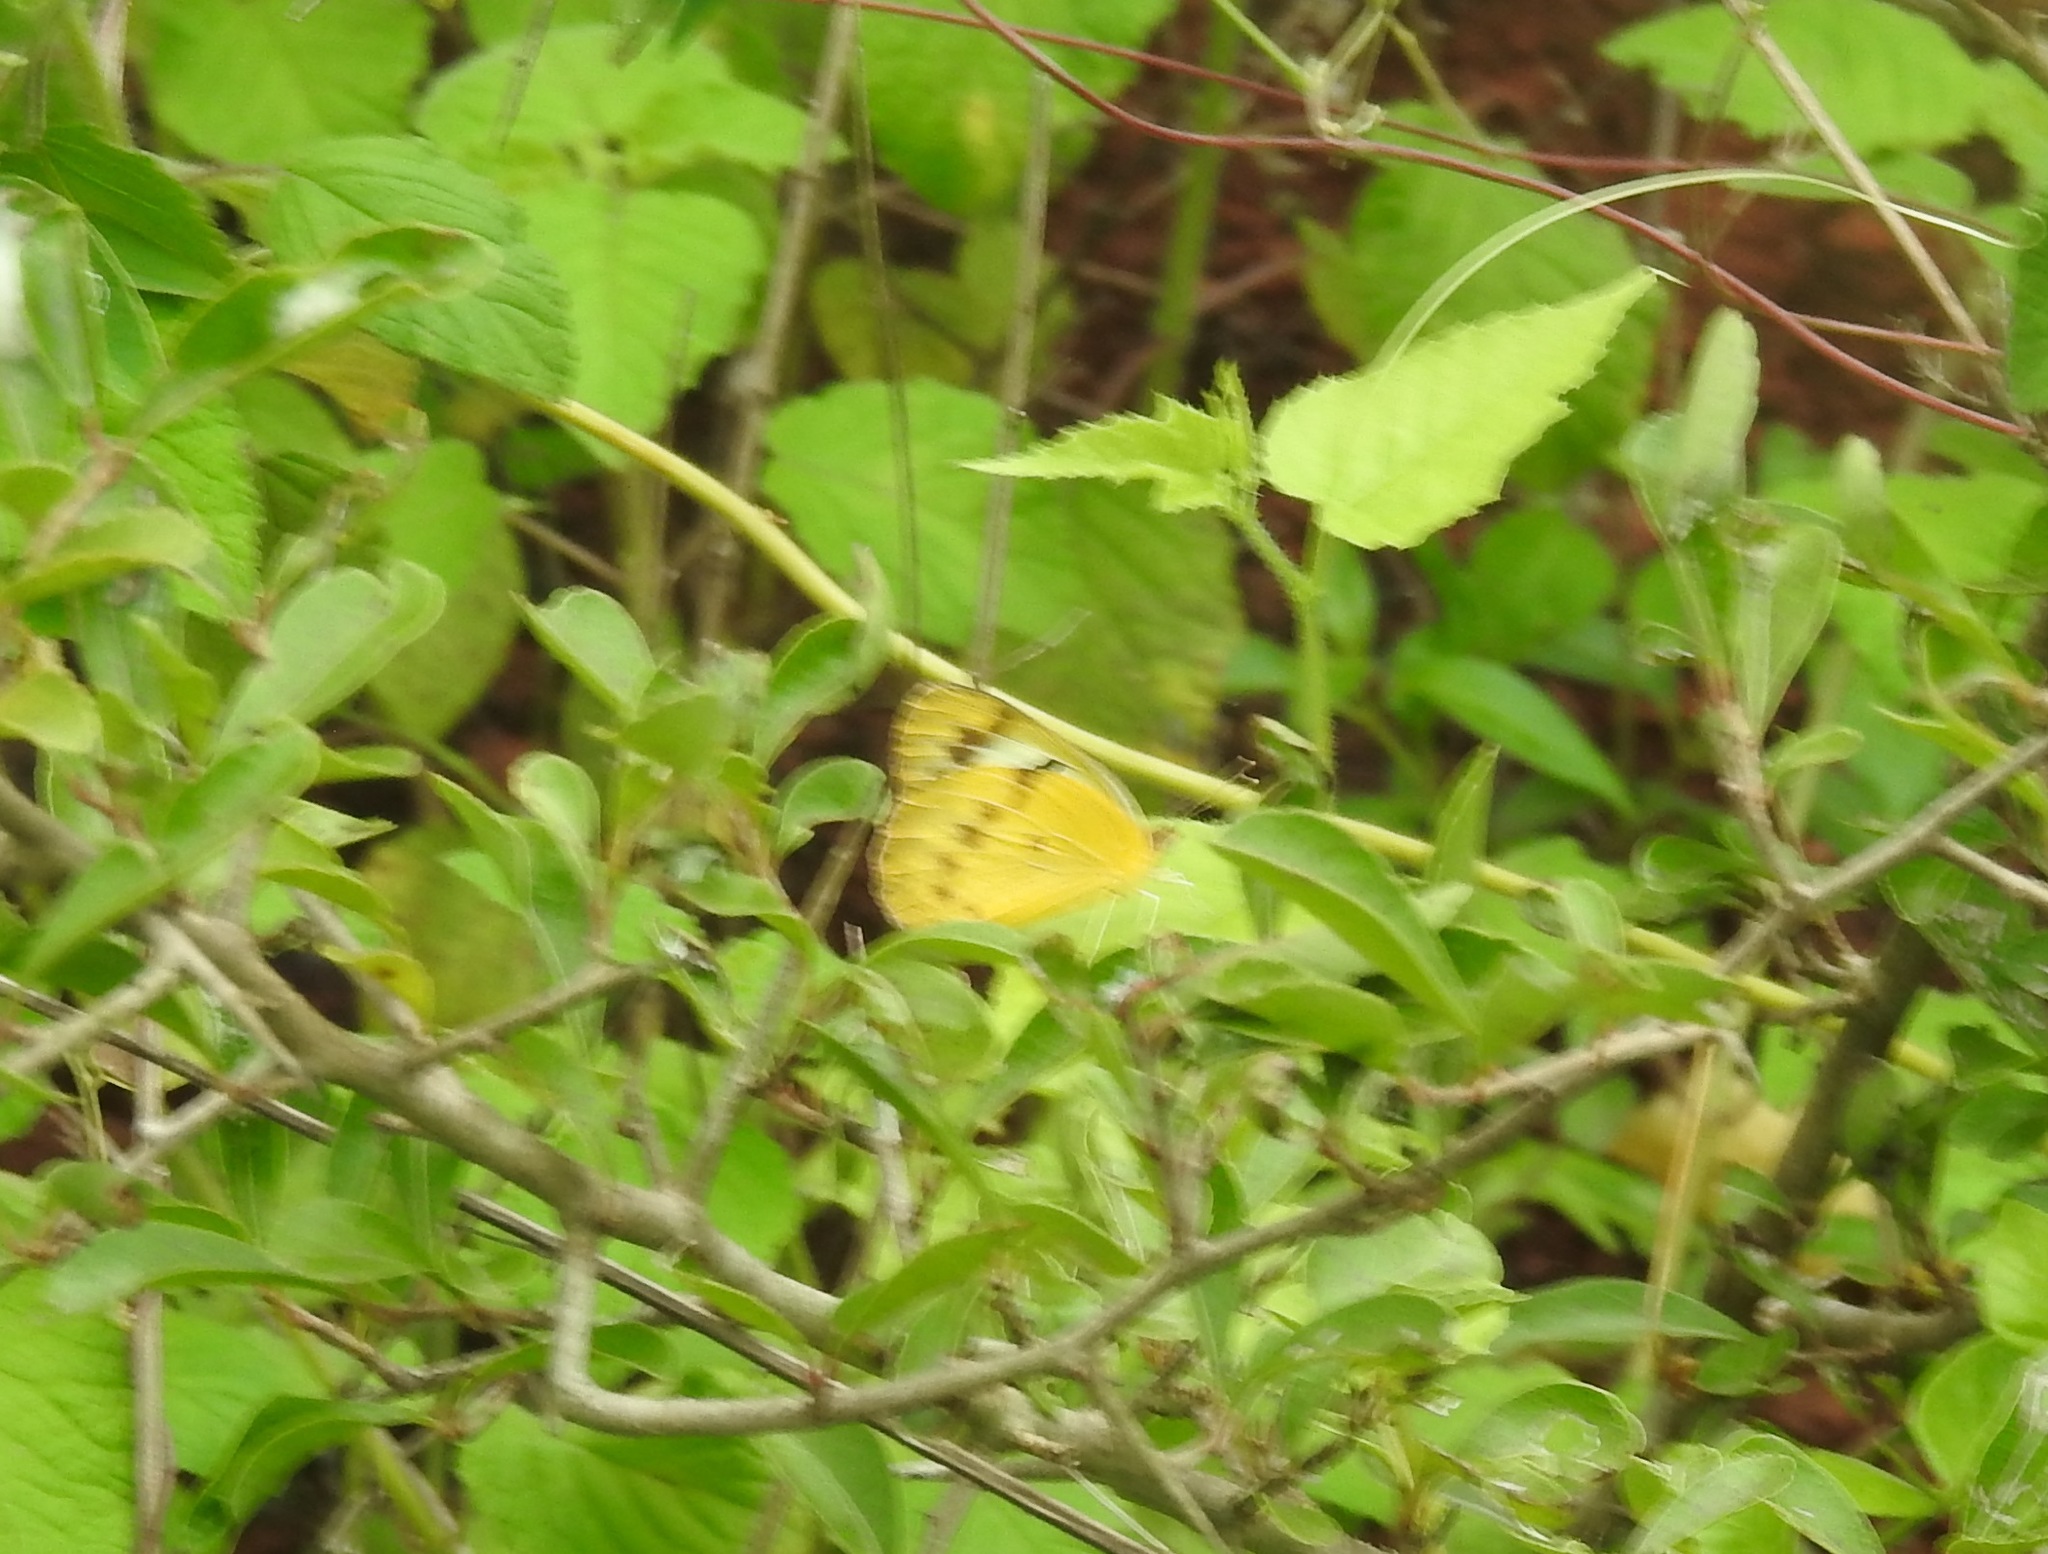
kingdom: Animalia
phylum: Arthropoda
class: Insecta
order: Lepidoptera
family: Pieridae
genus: Colotis
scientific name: Colotis fausta
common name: Large salmon arab
